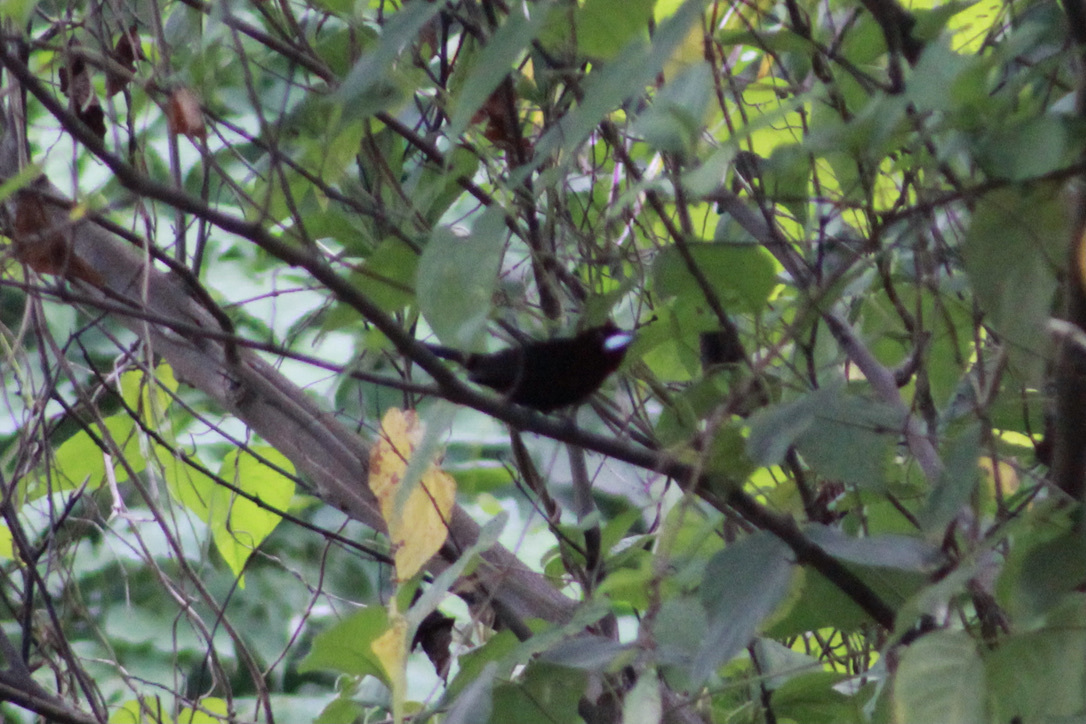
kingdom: Animalia
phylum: Chordata
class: Aves
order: Passeriformes
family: Thraupidae
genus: Ramphocelus
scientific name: Ramphocelus carbo
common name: Silver-beaked tanager
